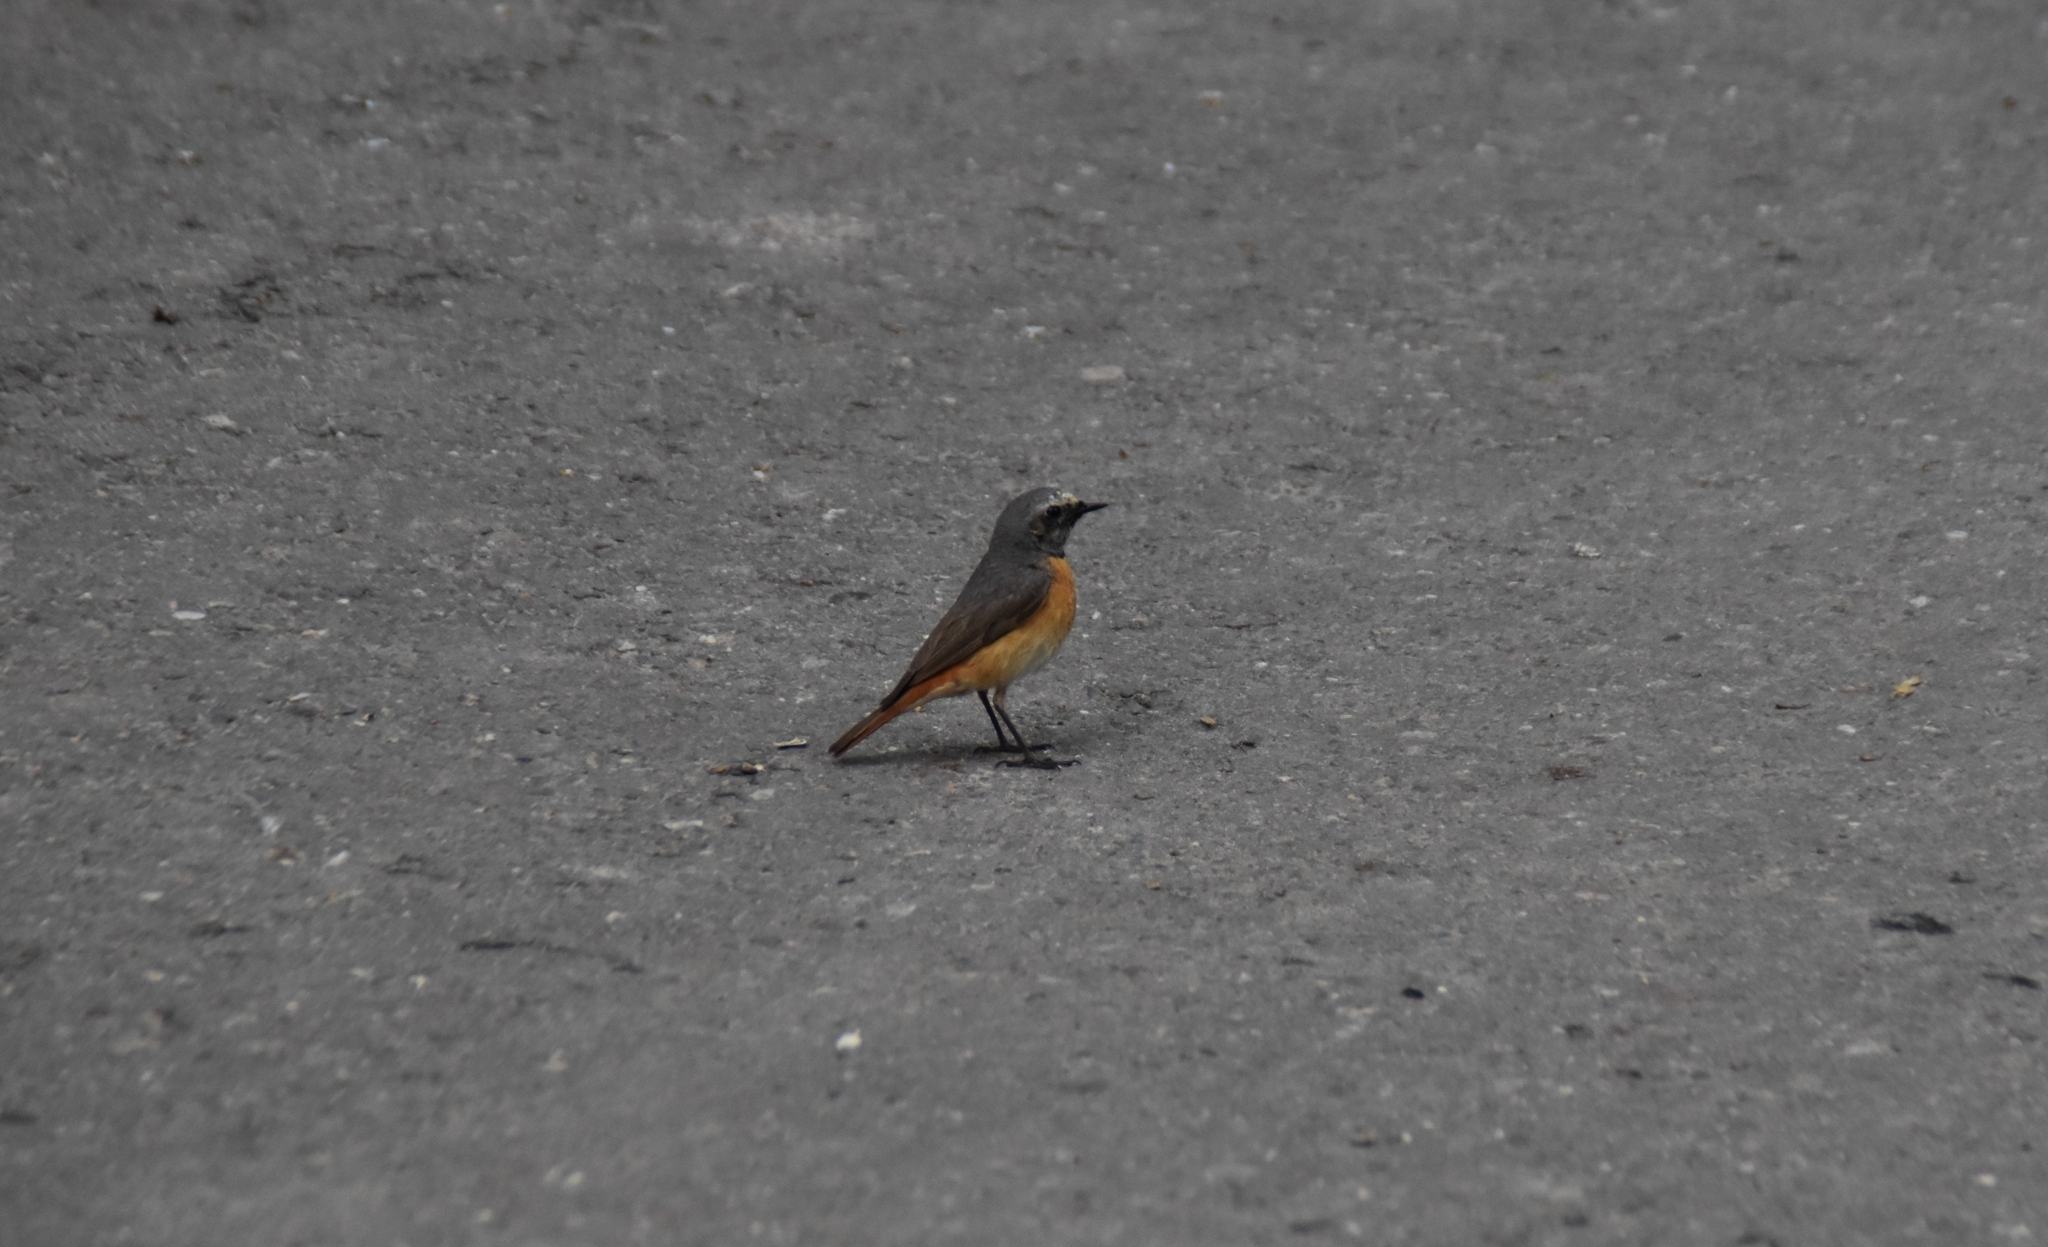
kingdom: Animalia
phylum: Chordata
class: Aves
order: Passeriformes
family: Muscicapidae
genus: Phoenicurus
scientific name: Phoenicurus phoenicurus
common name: Common redstart
